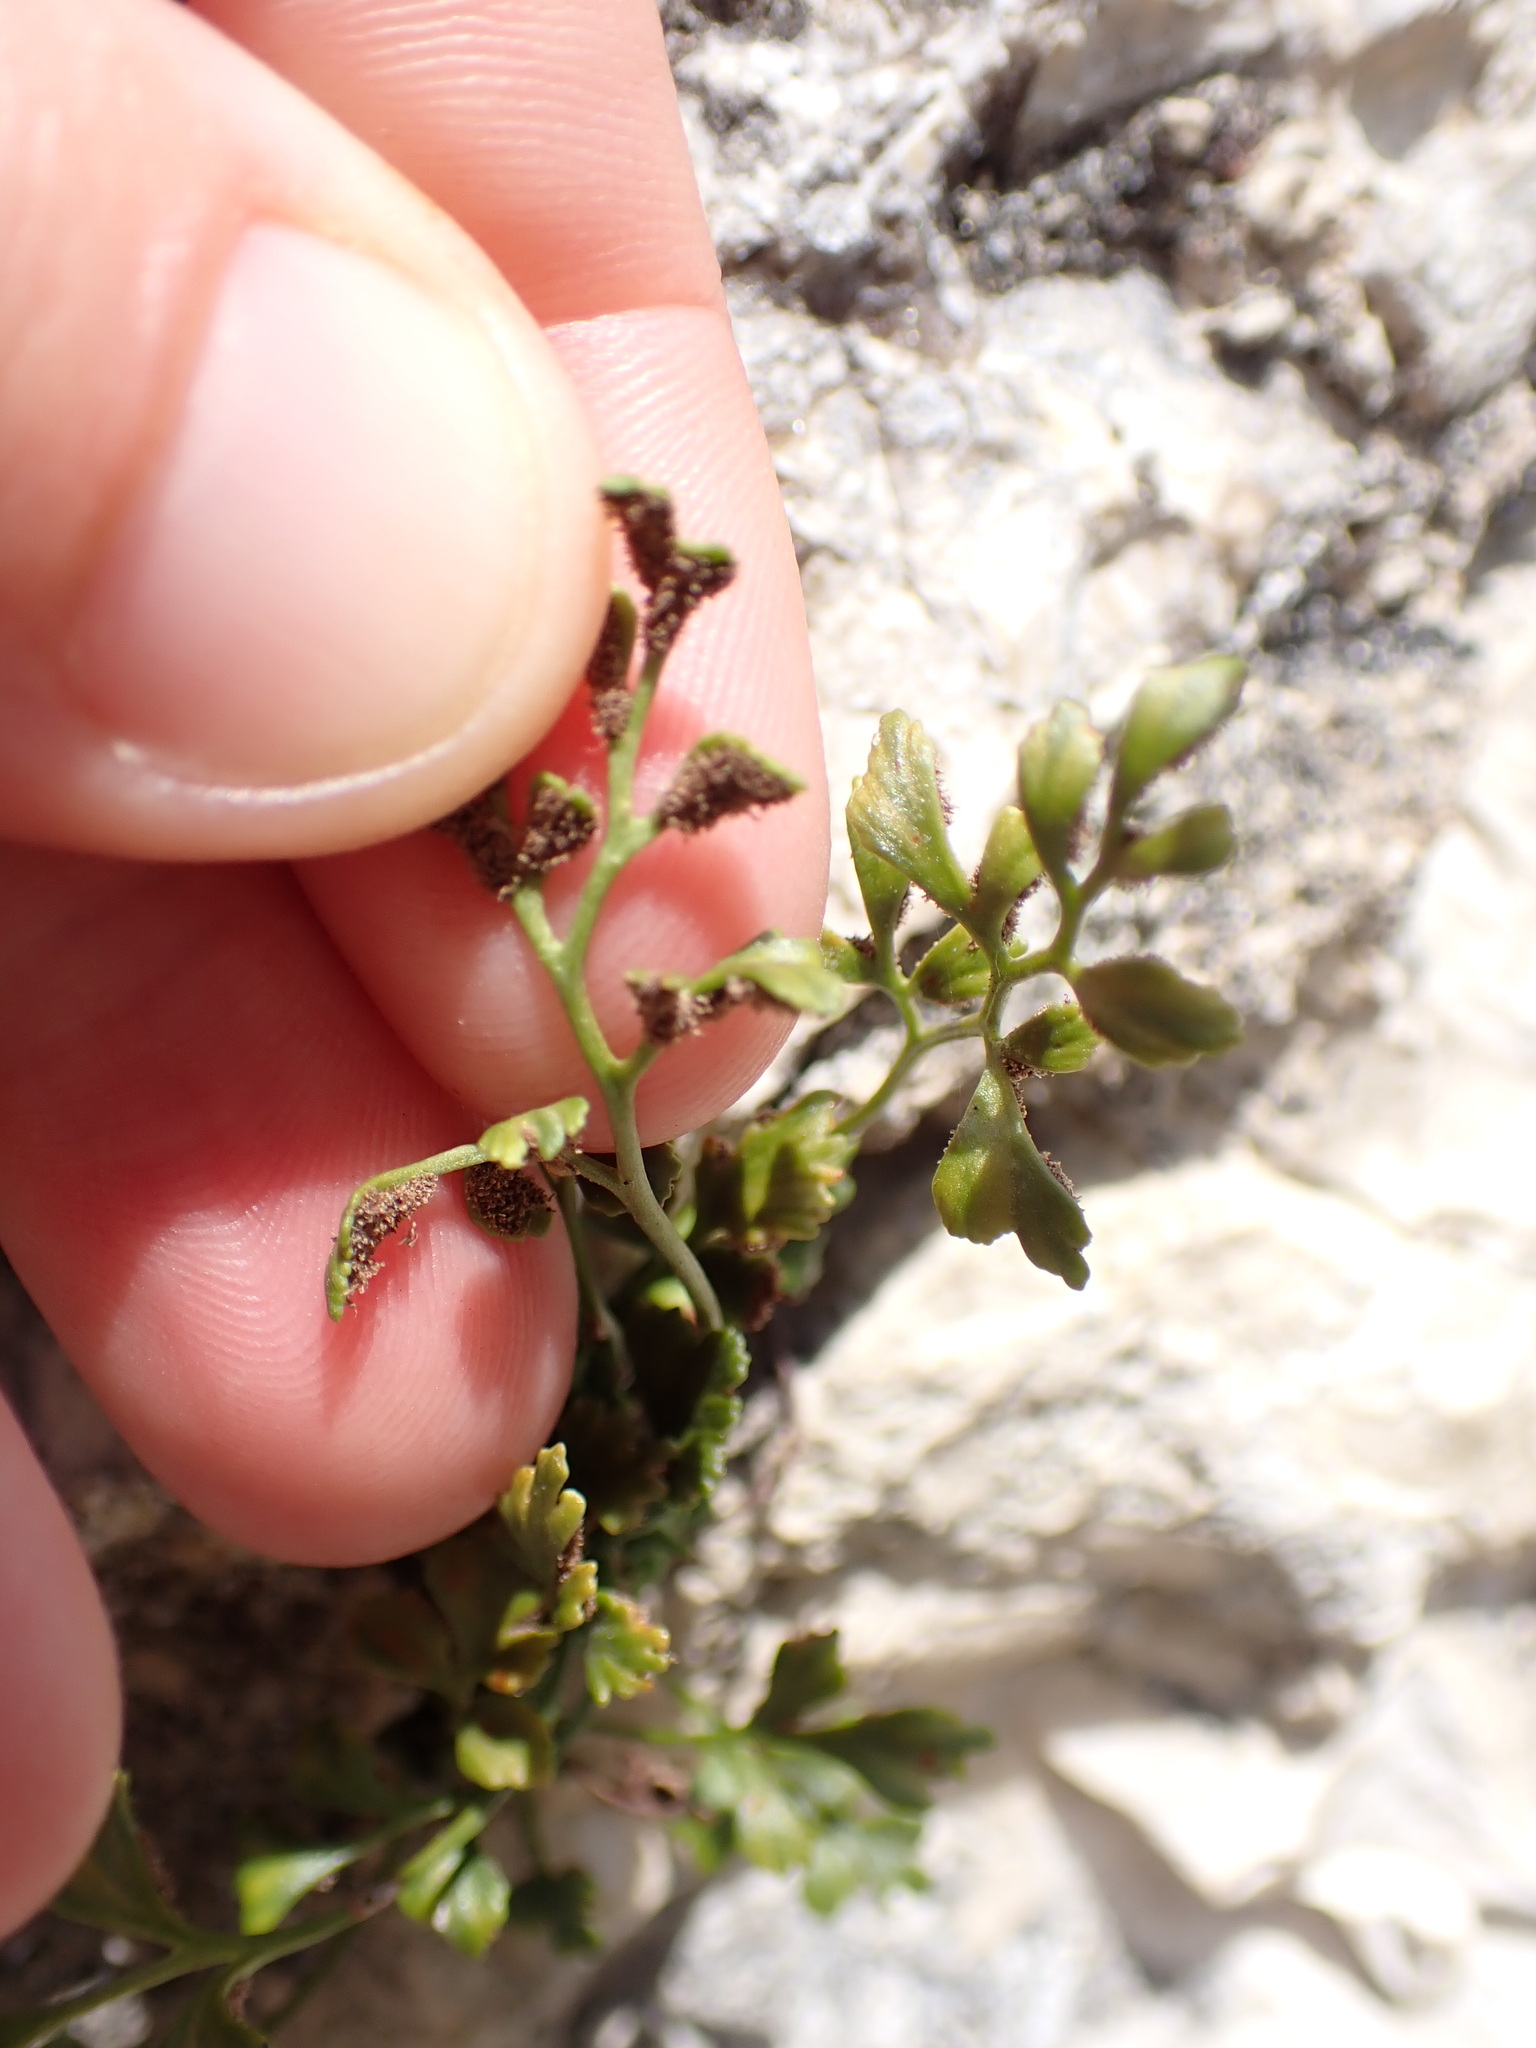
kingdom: Plantae
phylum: Tracheophyta
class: Polypodiopsida
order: Polypodiales
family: Aspleniaceae
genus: Asplenium
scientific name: Asplenium ruta-muraria
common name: Wall-rue
